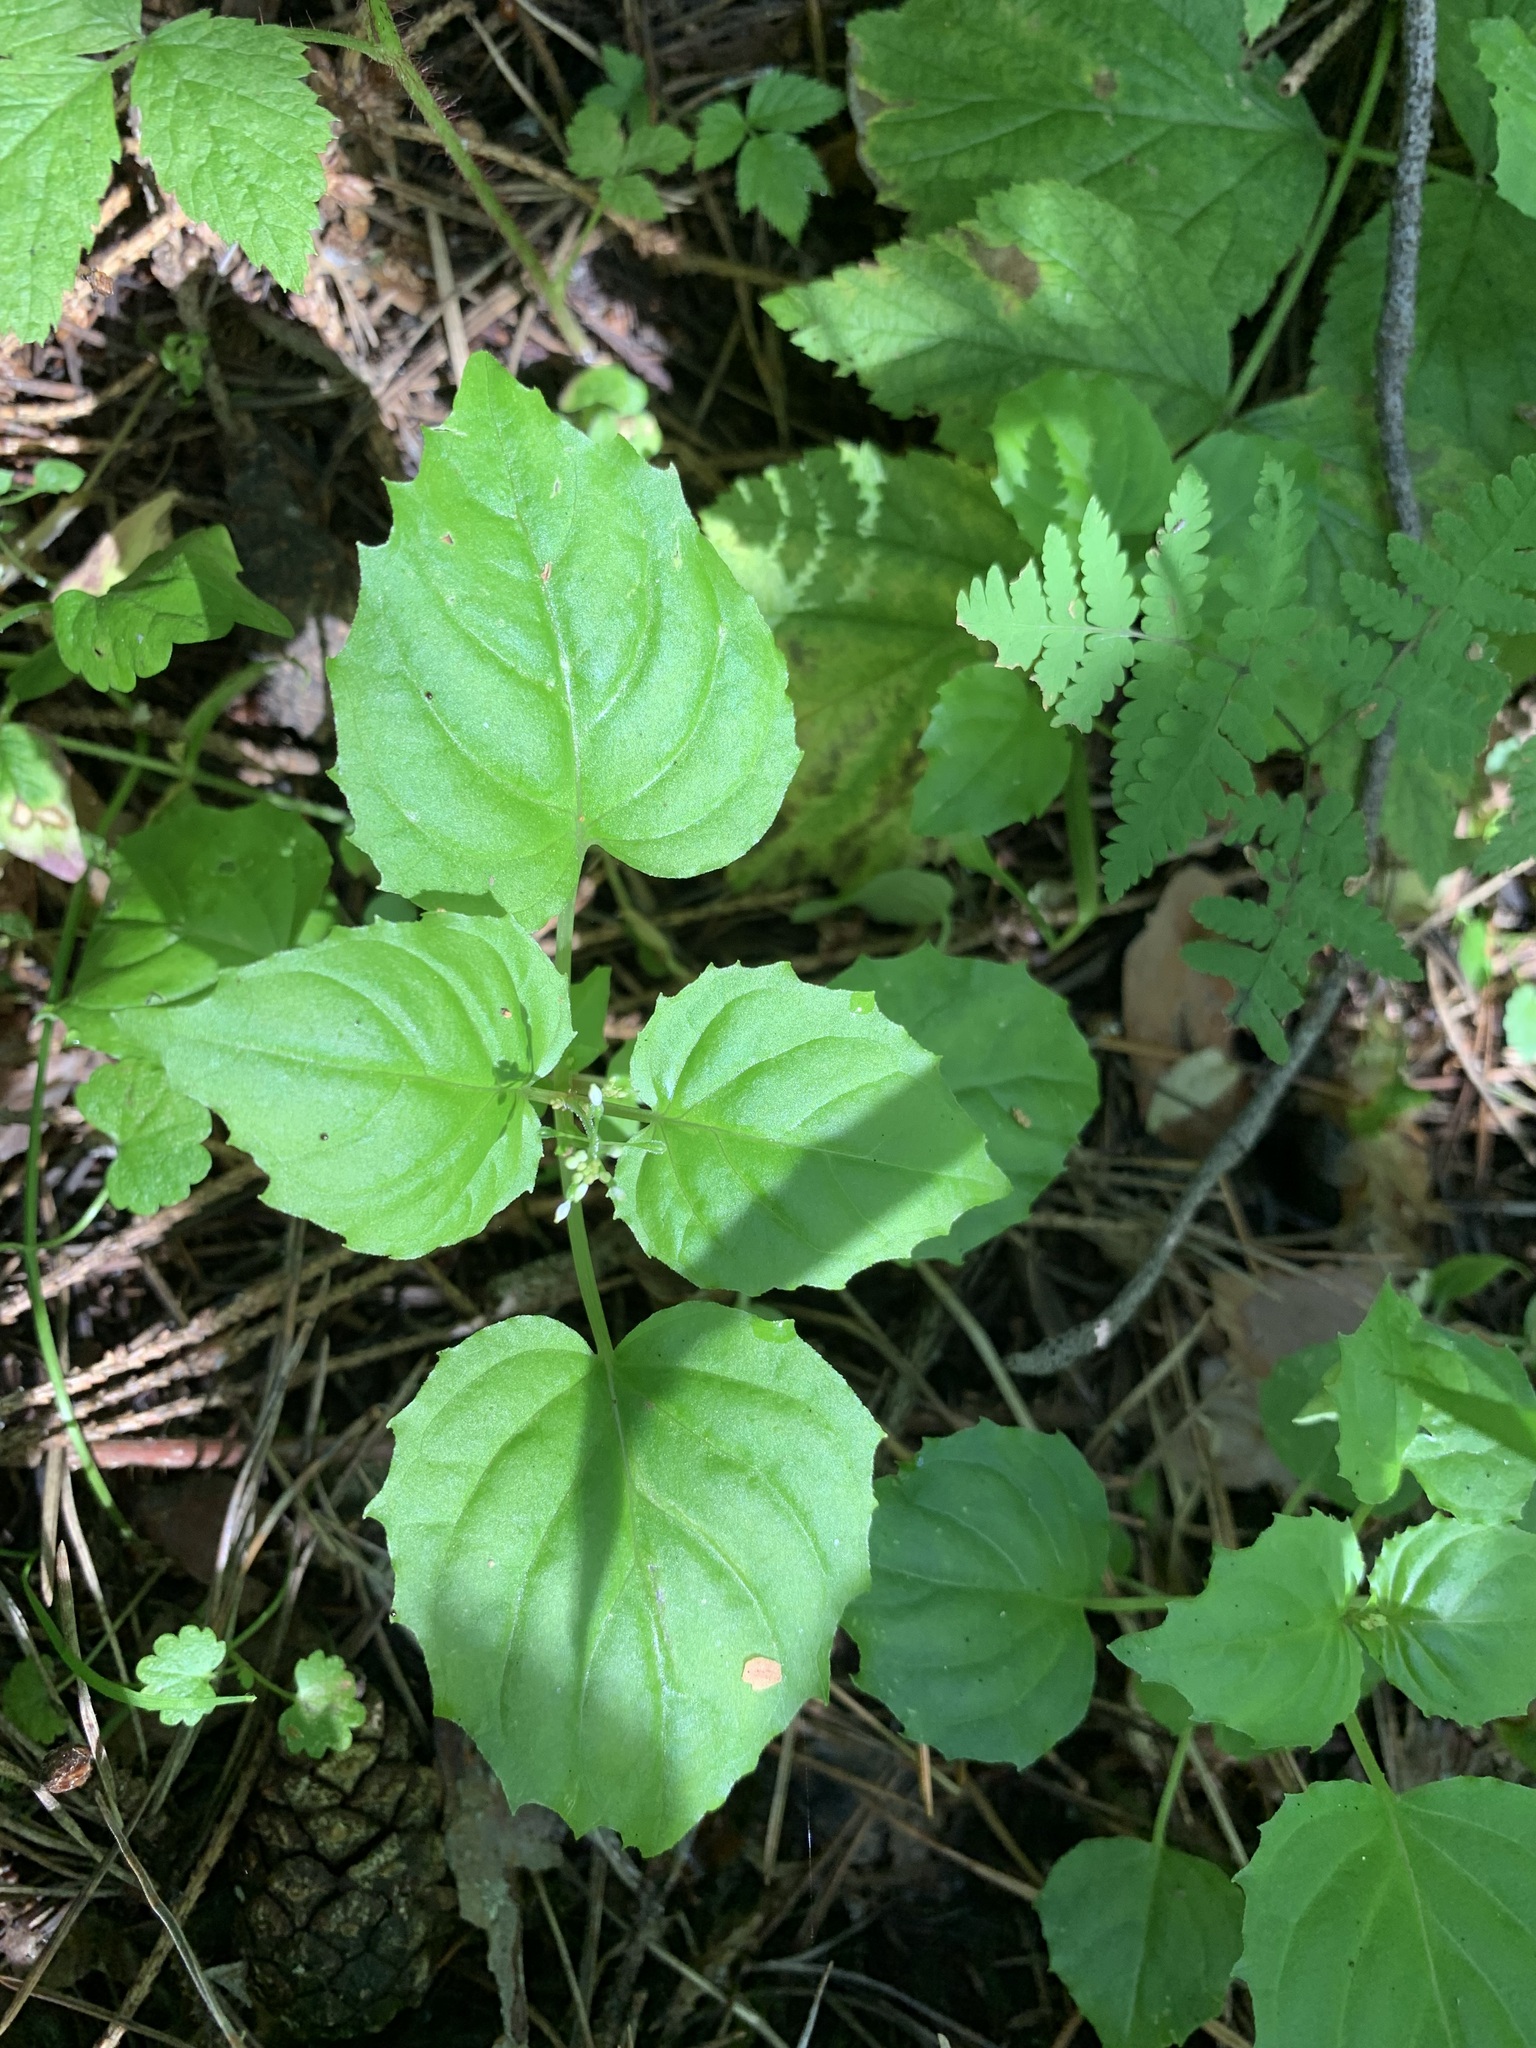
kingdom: Plantae
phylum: Tracheophyta
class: Magnoliopsida
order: Myrtales
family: Onagraceae
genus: Circaea
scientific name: Circaea alpina
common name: Alpine enchanter's-nightshade
